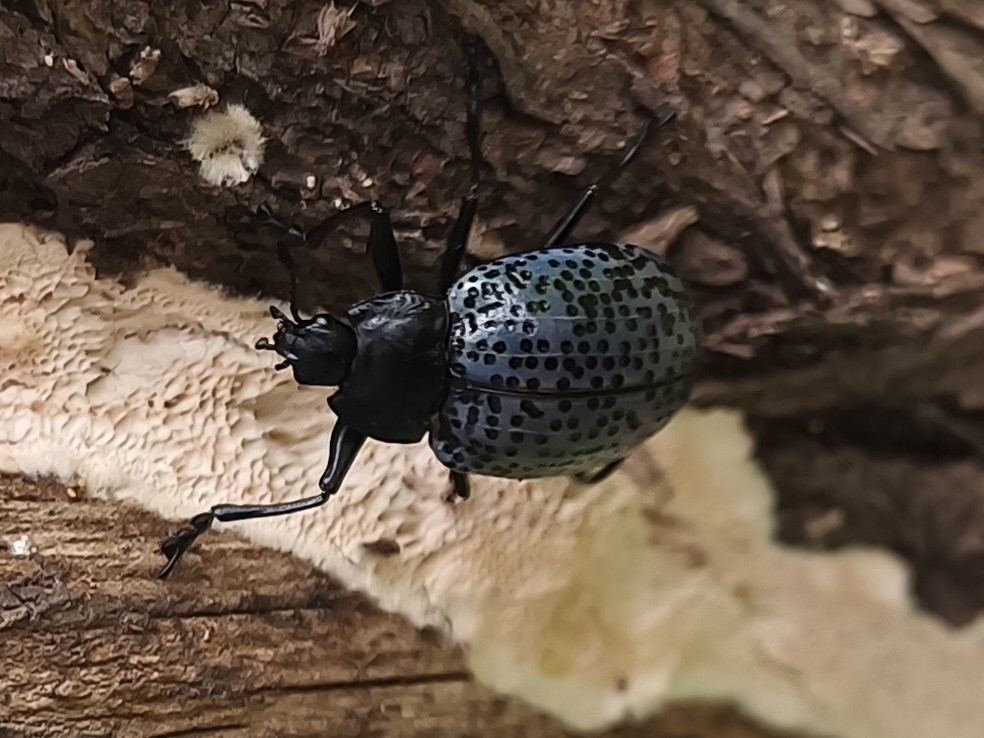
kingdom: Animalia
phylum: Arthropoda
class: Insecta
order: Coleoptera
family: Erotylidae
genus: Gibbifer
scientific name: Gibbifer californicus
